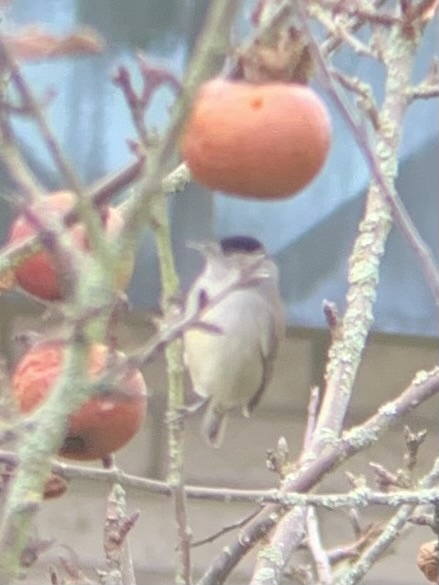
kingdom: Animalia
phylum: Chordata
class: Aves
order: Passeriformes
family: Sylviidae
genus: Sylvia
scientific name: Sylvia atricapilla
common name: Eurasian blackcap
